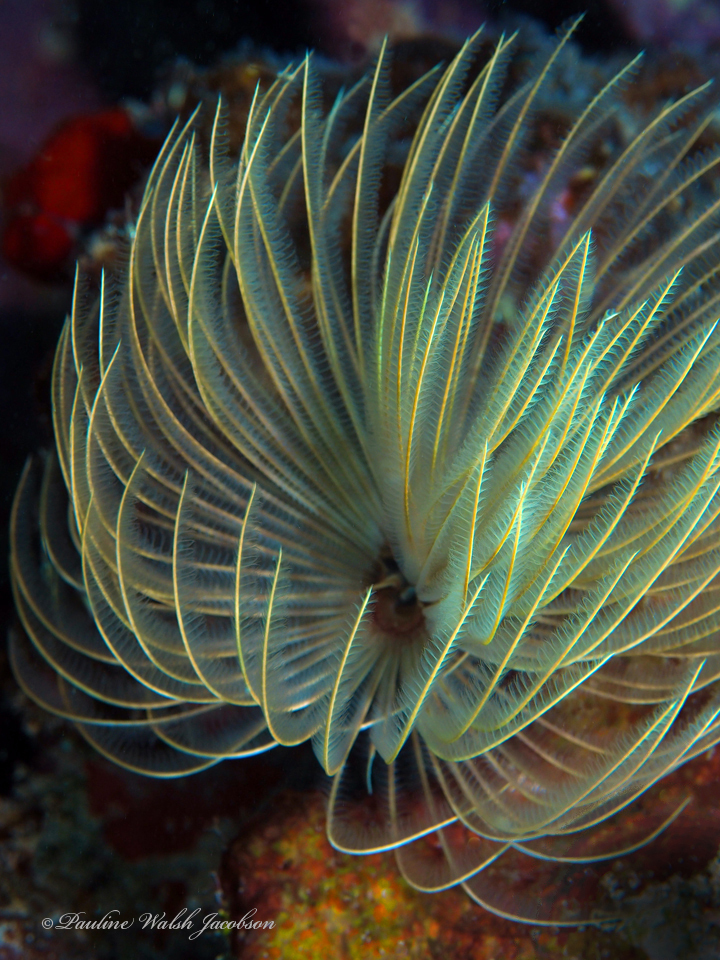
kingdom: Animalia
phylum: Annelida
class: Polychaeta
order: Sabellida
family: Sabellidae
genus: Sabellastarte
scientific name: Sabellastarte magnifica
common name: Giant feather-duster worm
